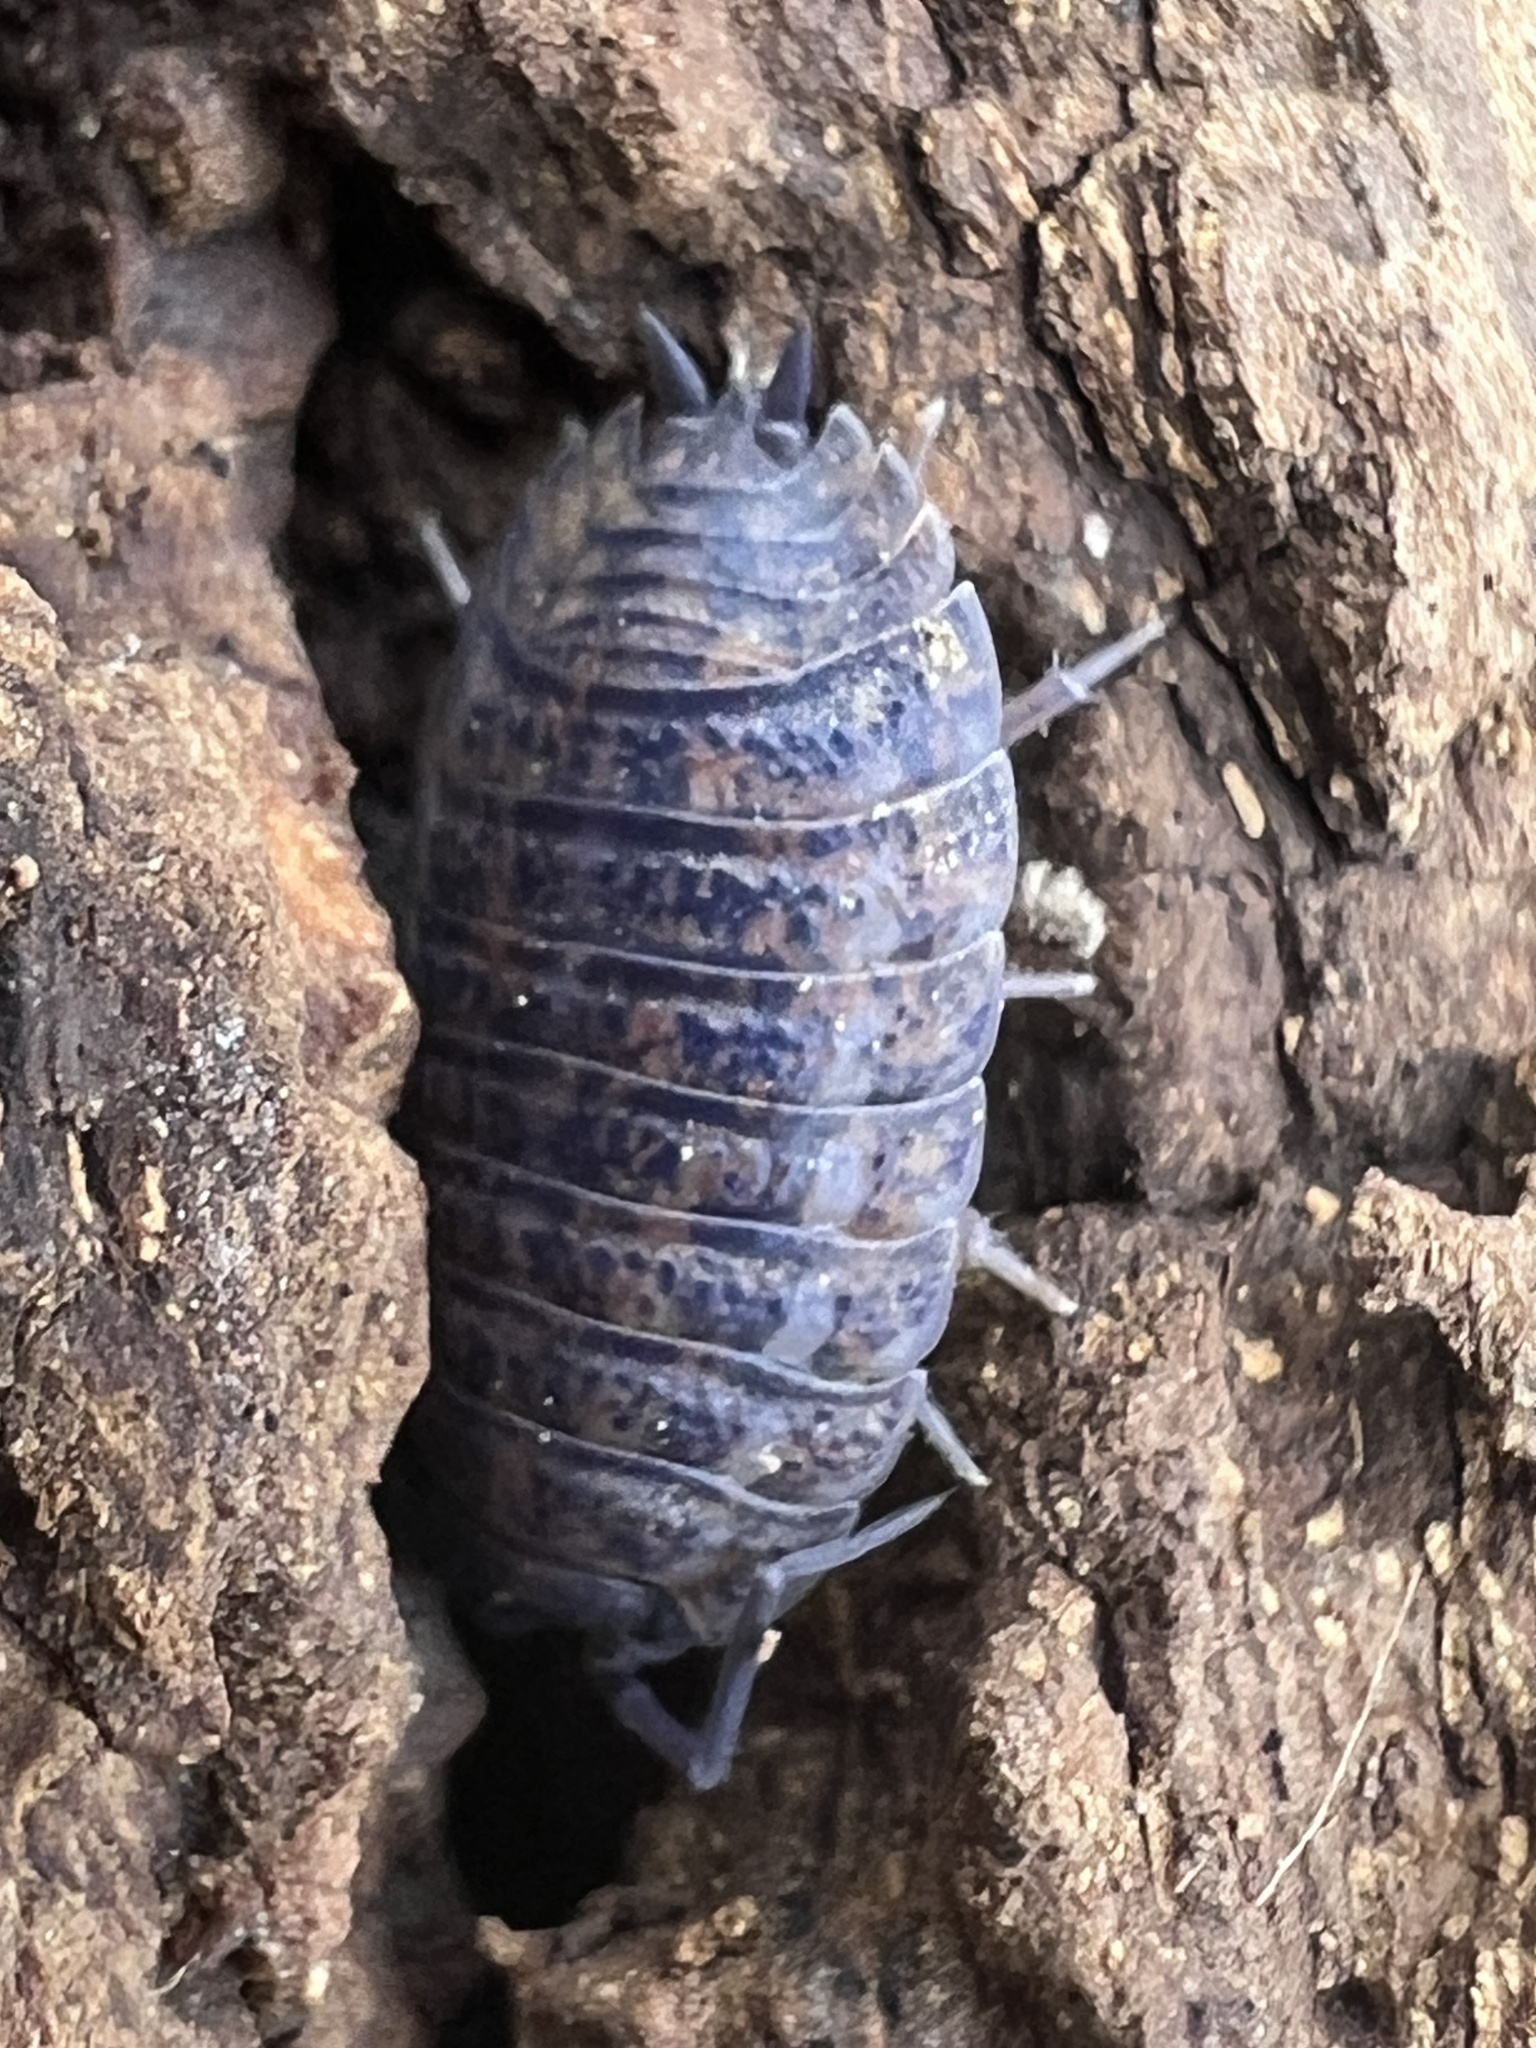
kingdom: Viruses
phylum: Nucleocytoviricota
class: Megaviricetes
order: Pimascovirales
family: Iridoviridae
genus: Iridovirus
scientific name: Iridovirus Invertebrate iridescent virus 31
